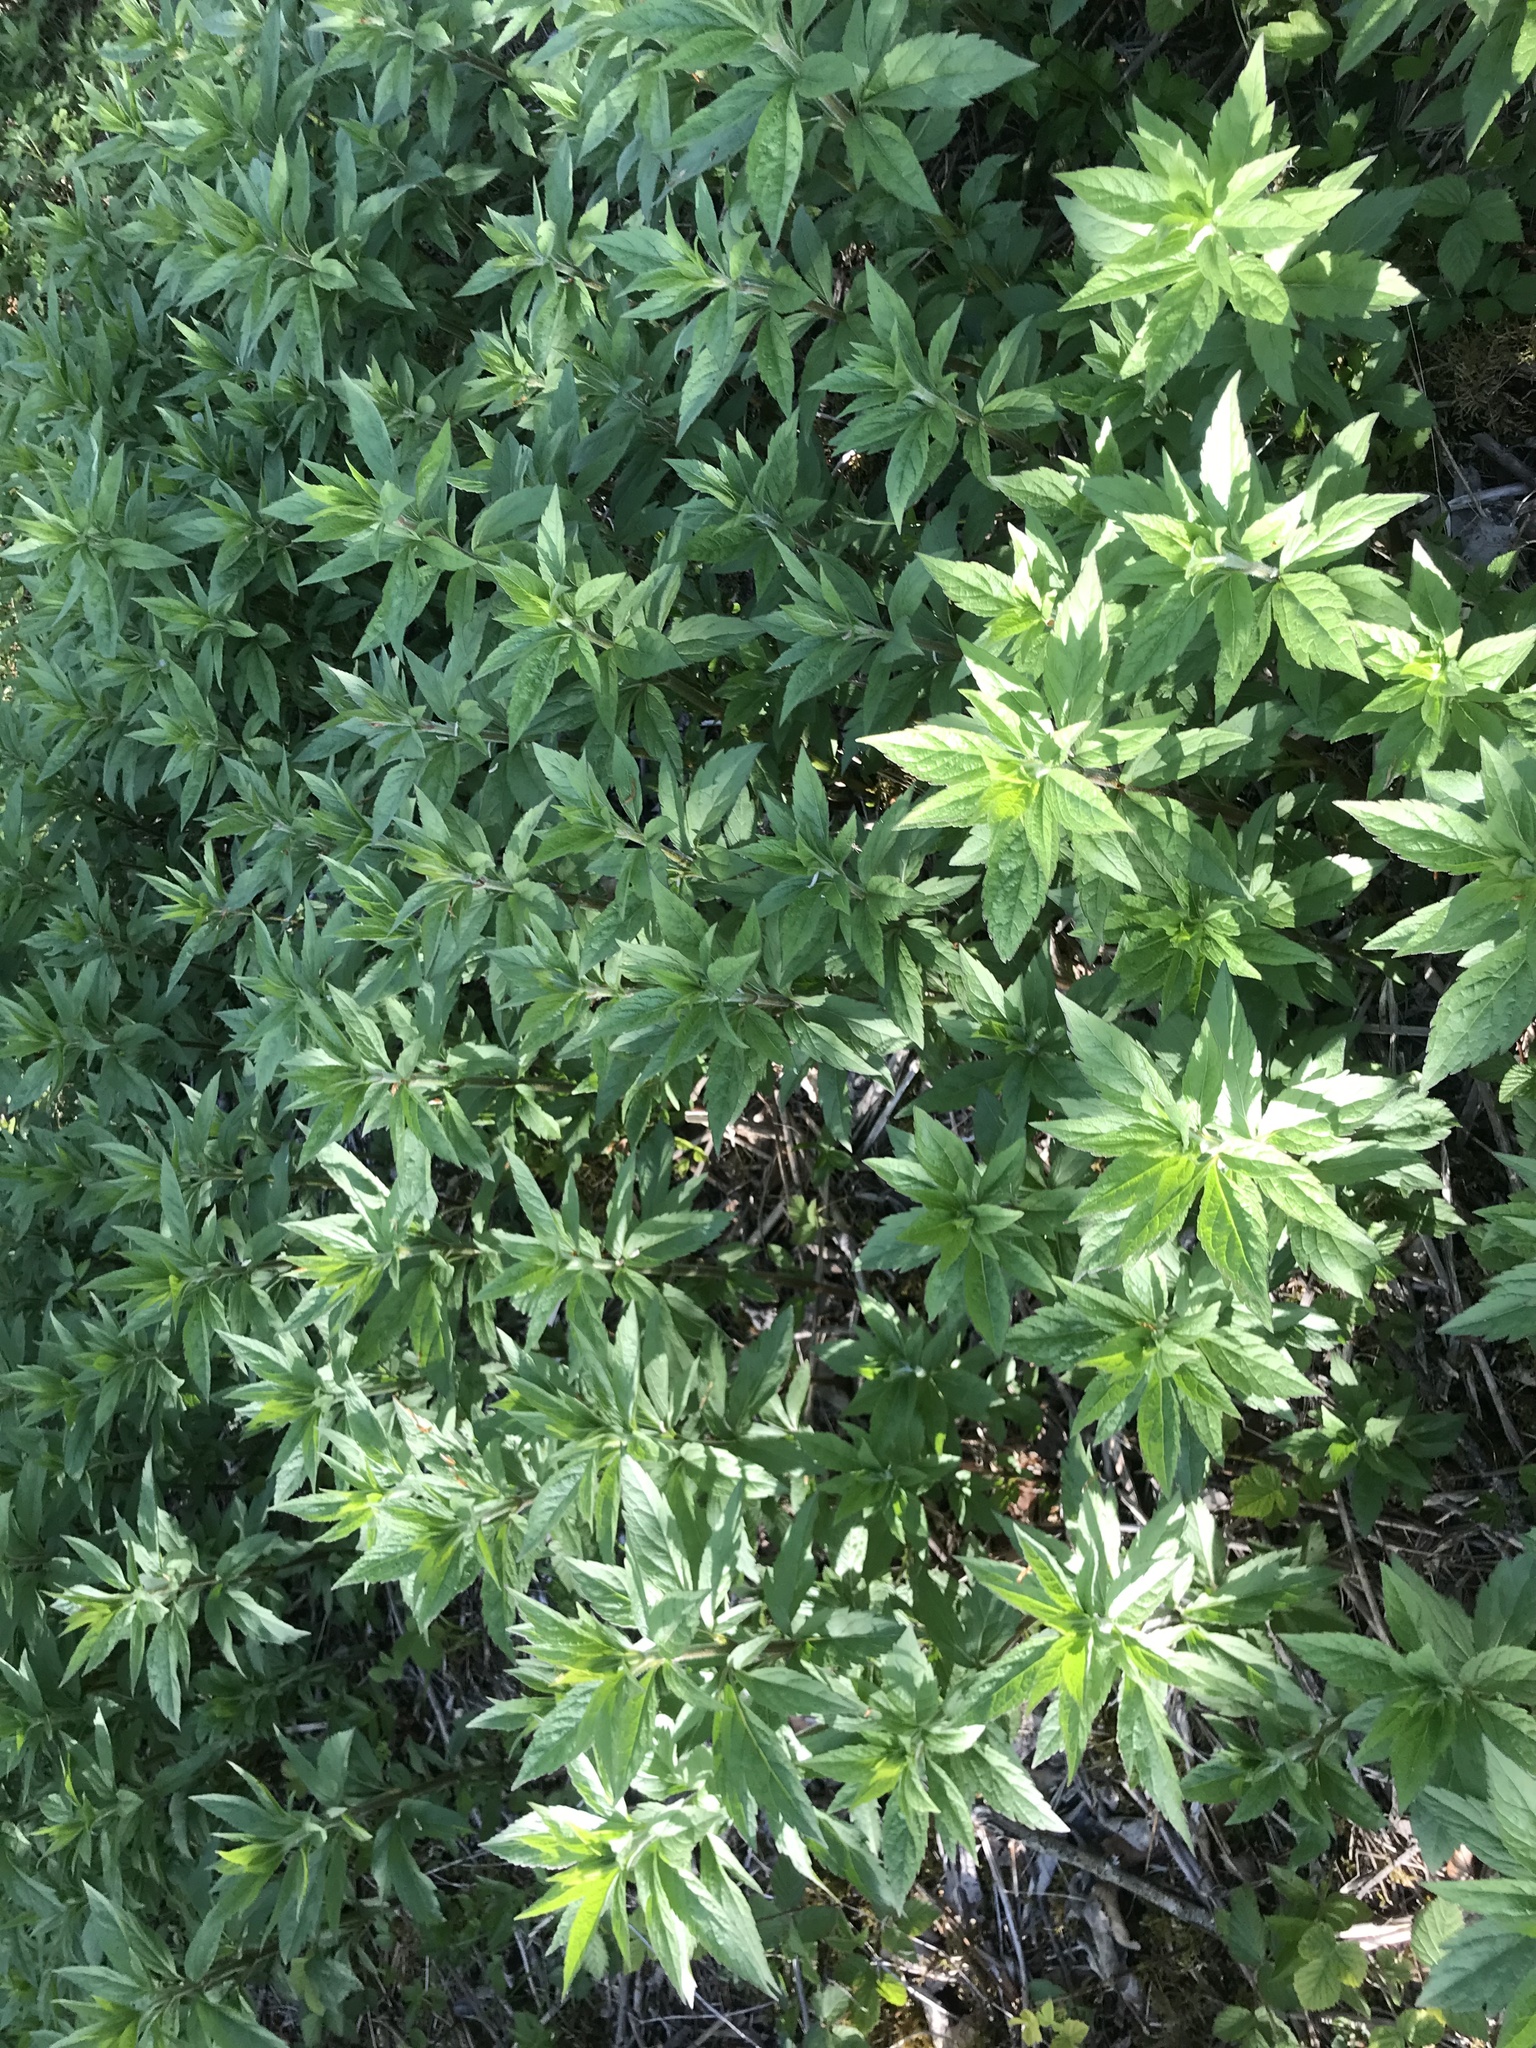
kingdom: Plantae
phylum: Tracheophyta
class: Magnoliopsida
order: Asterales
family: Asteraceae
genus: Eupatorium
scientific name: Eupatorium cannabinum
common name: Hemp-agrimony
